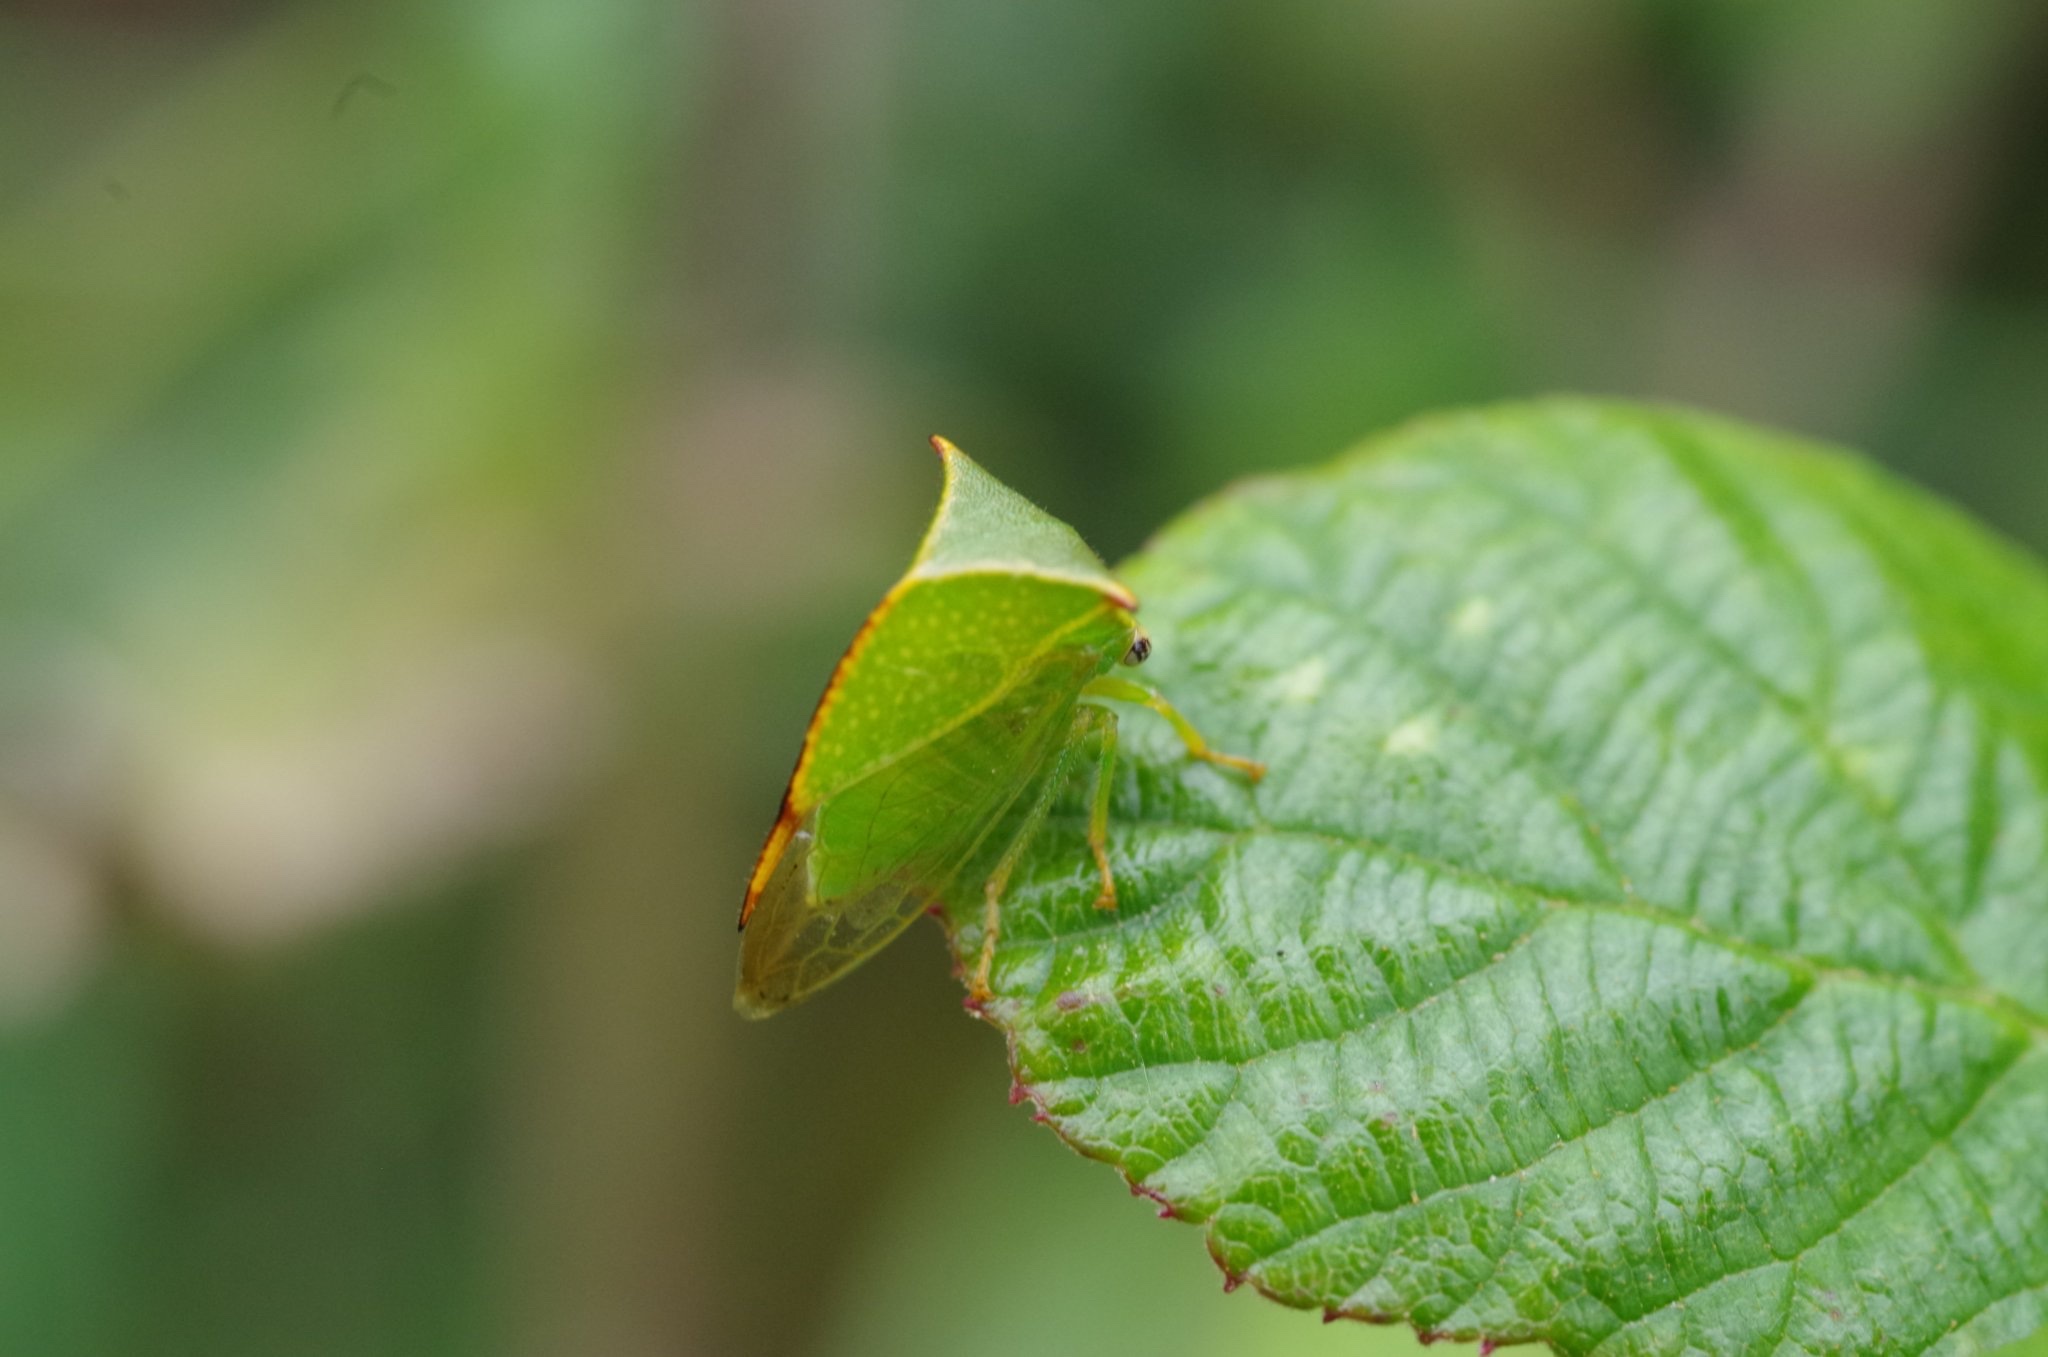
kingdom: Animalia
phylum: Arthropoda
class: Insecta
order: Hemiptera
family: Membracidae
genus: Stictocephala
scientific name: Stictocephala bisonia
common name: American buffalo treehopper
